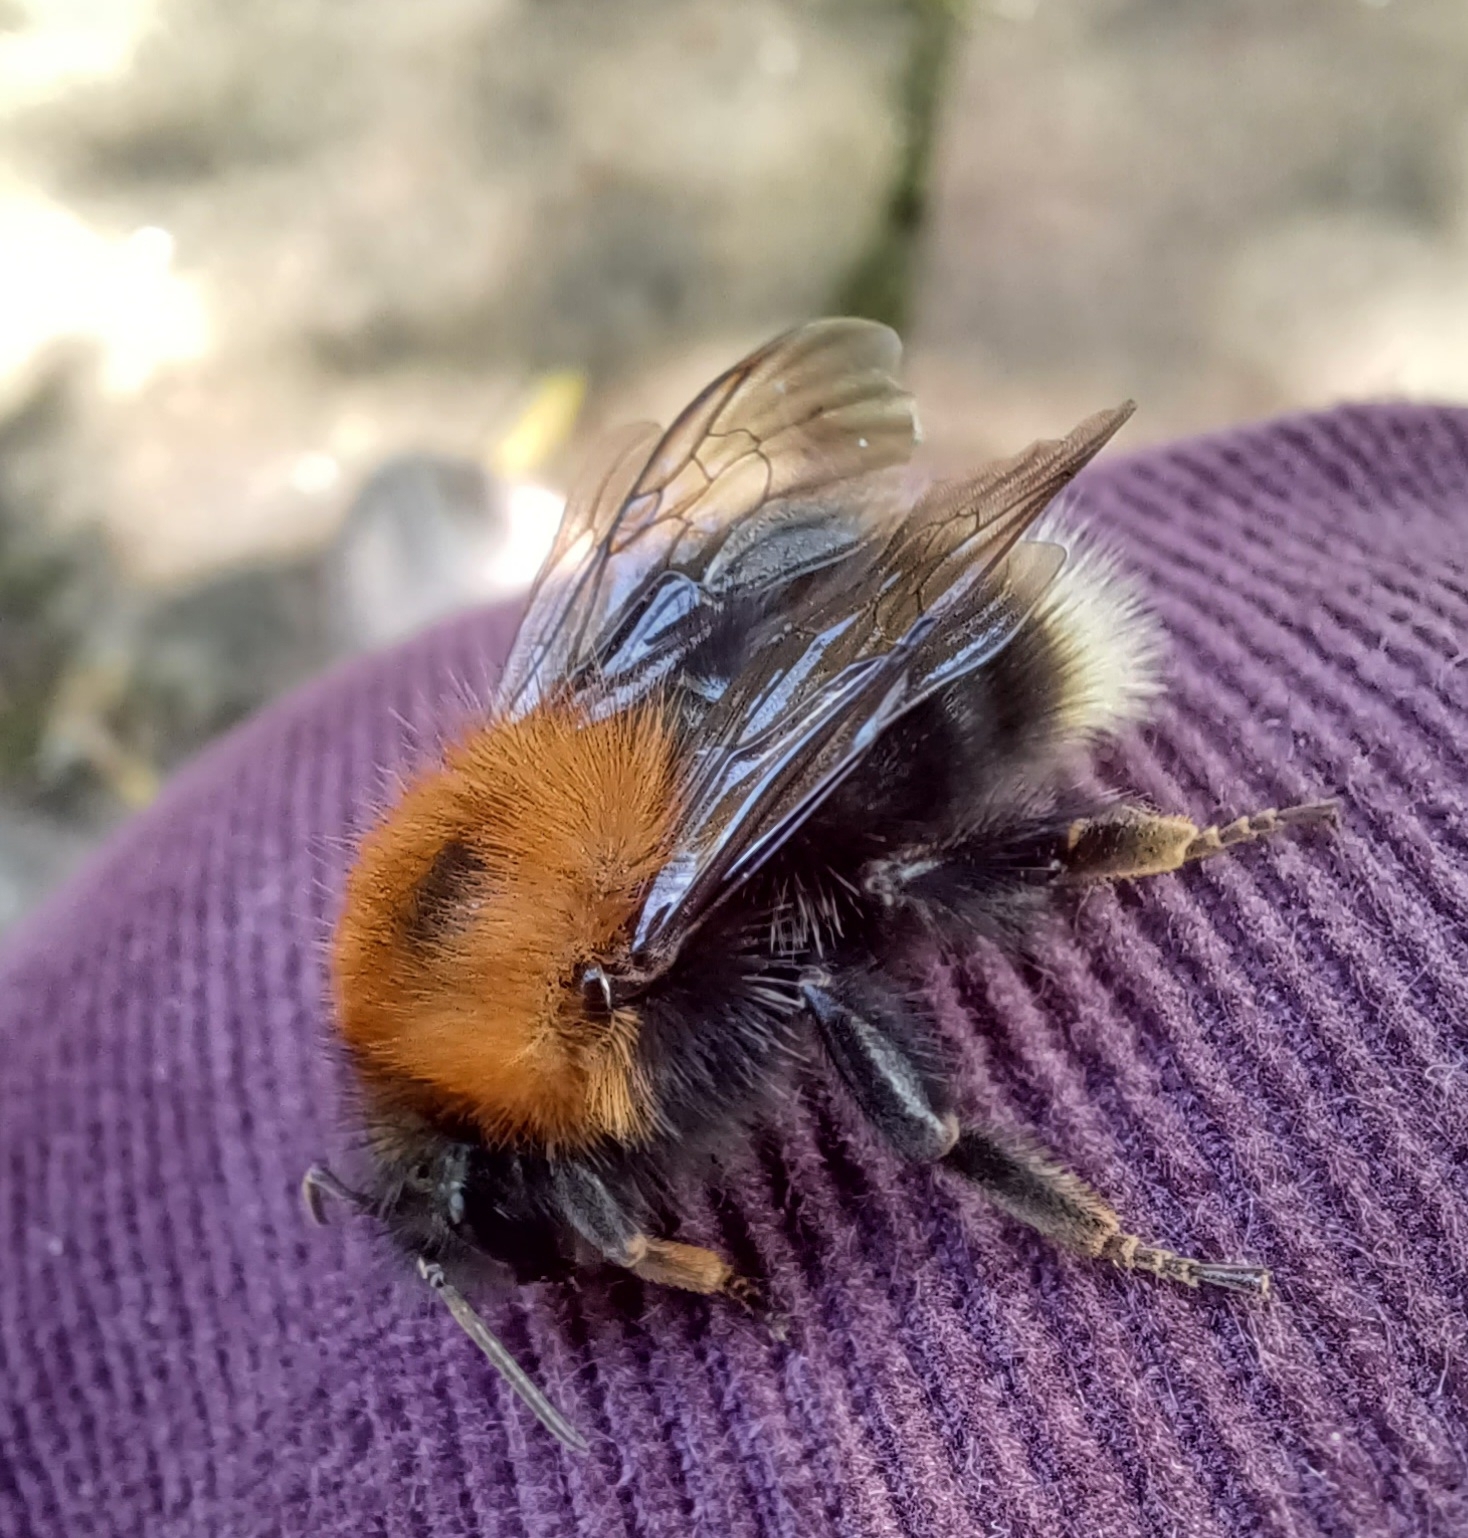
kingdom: Animalia
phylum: Arthropoda
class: Insecta
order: Hymenoptera
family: Apidae
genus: Bombus
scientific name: Bombus hypnorum
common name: New garden bumblebee
